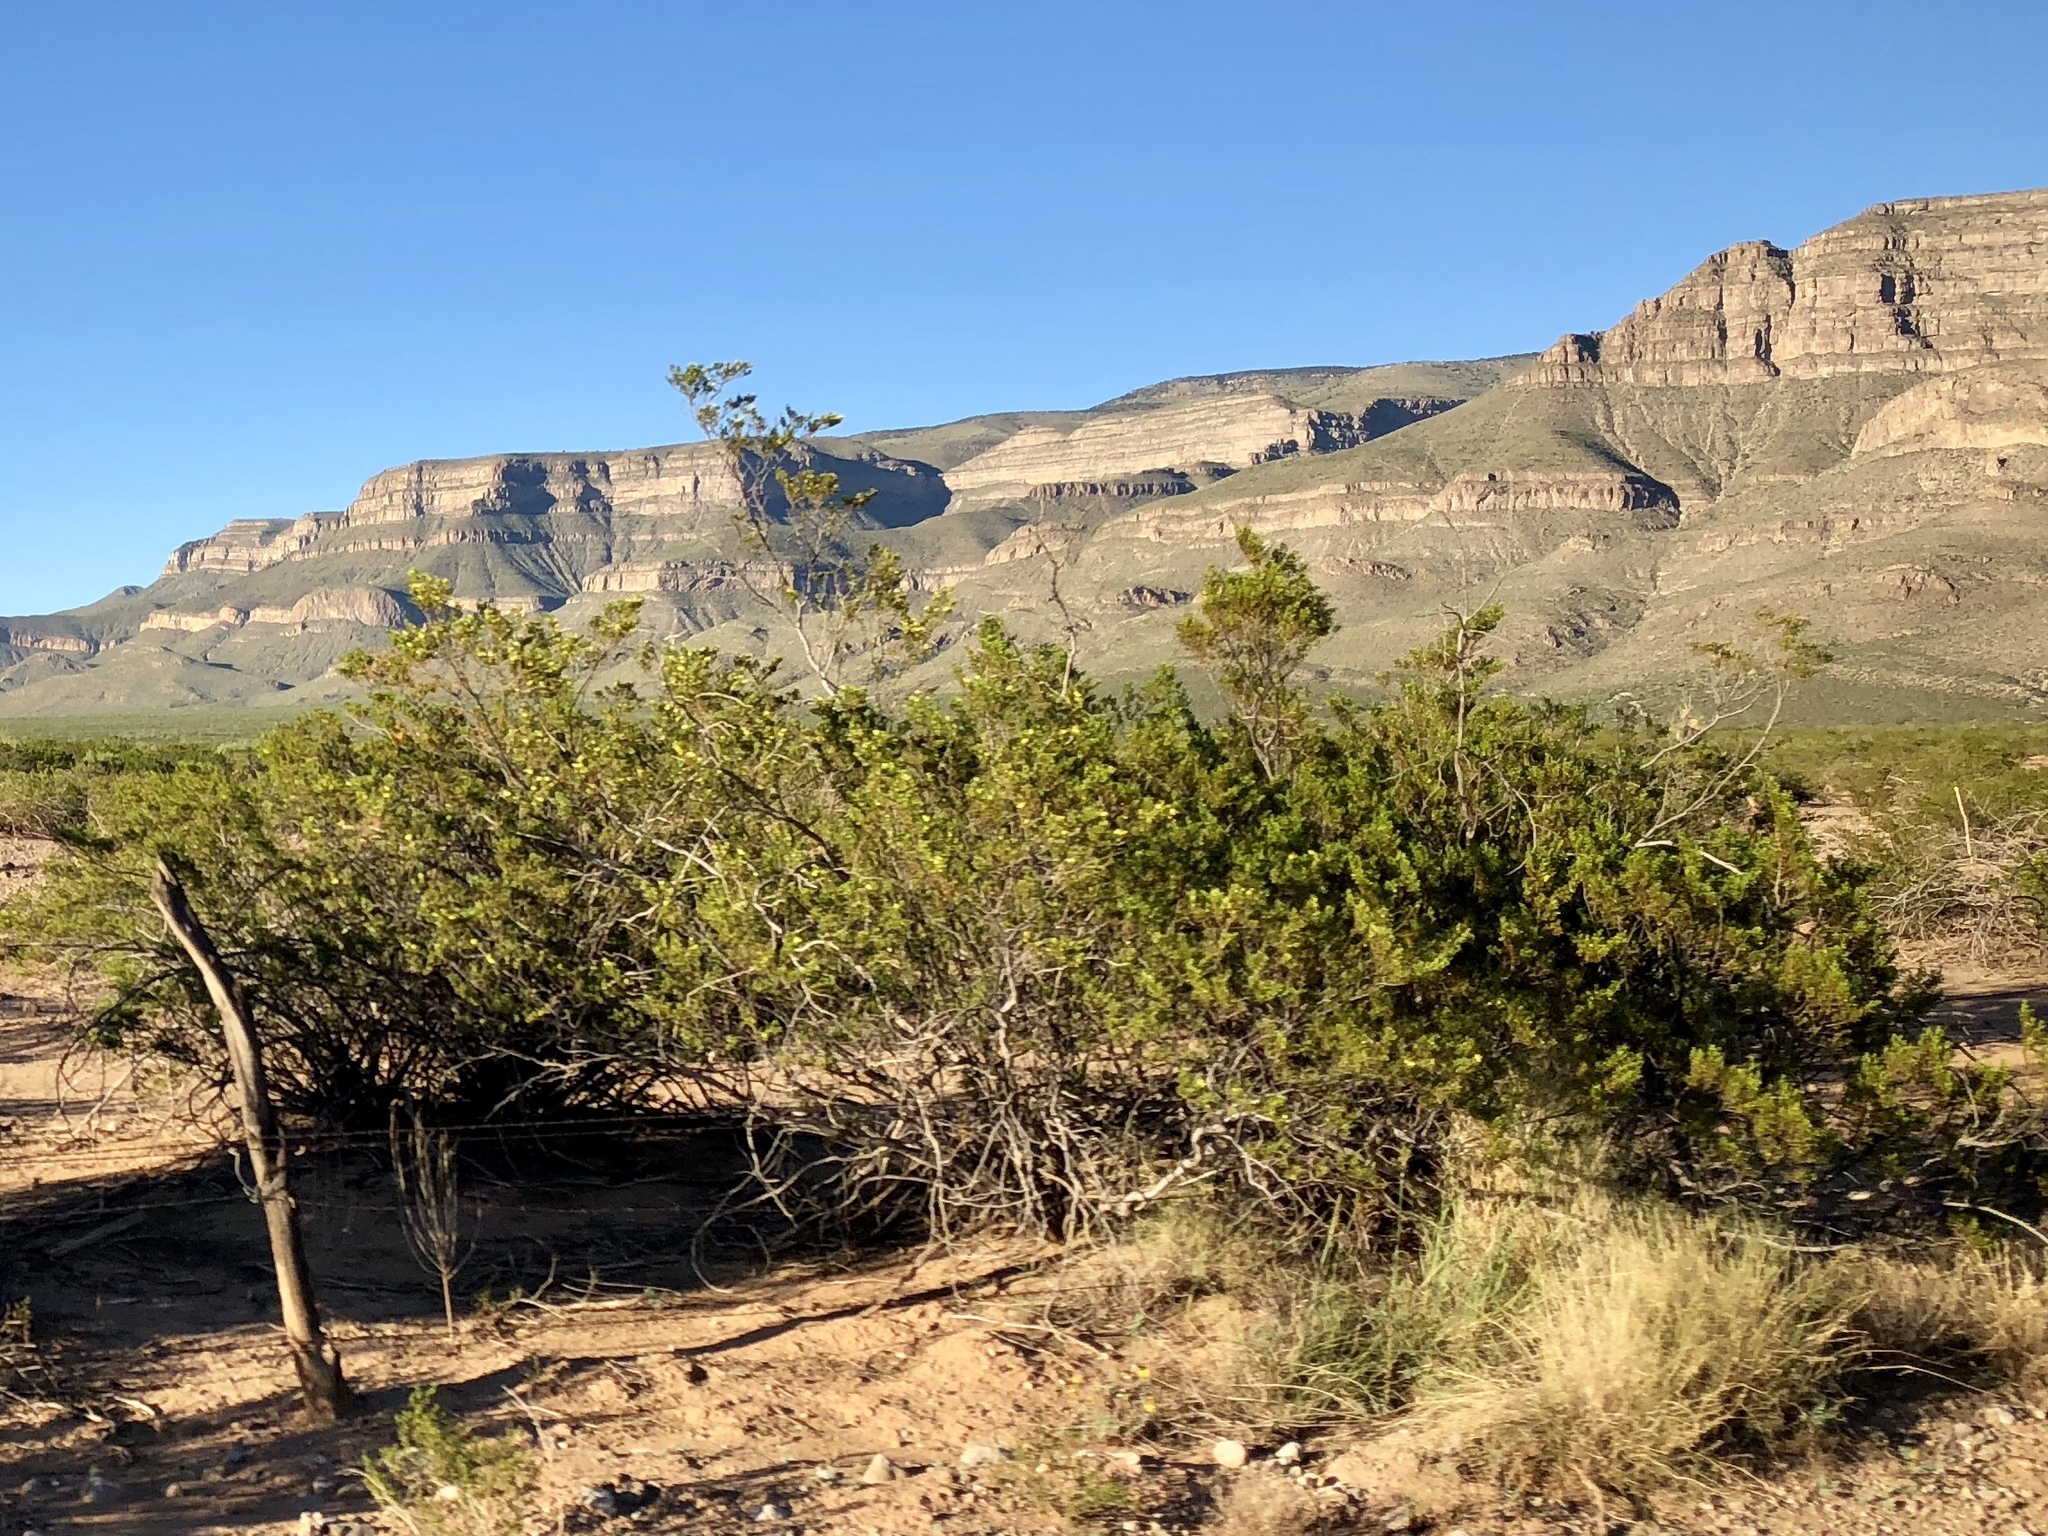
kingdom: Plantae
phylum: Tracheophyta
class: Magnoliopsida
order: Zygophyllales
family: Zygophyllaceae
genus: Larrea
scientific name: Larrea tridentata
